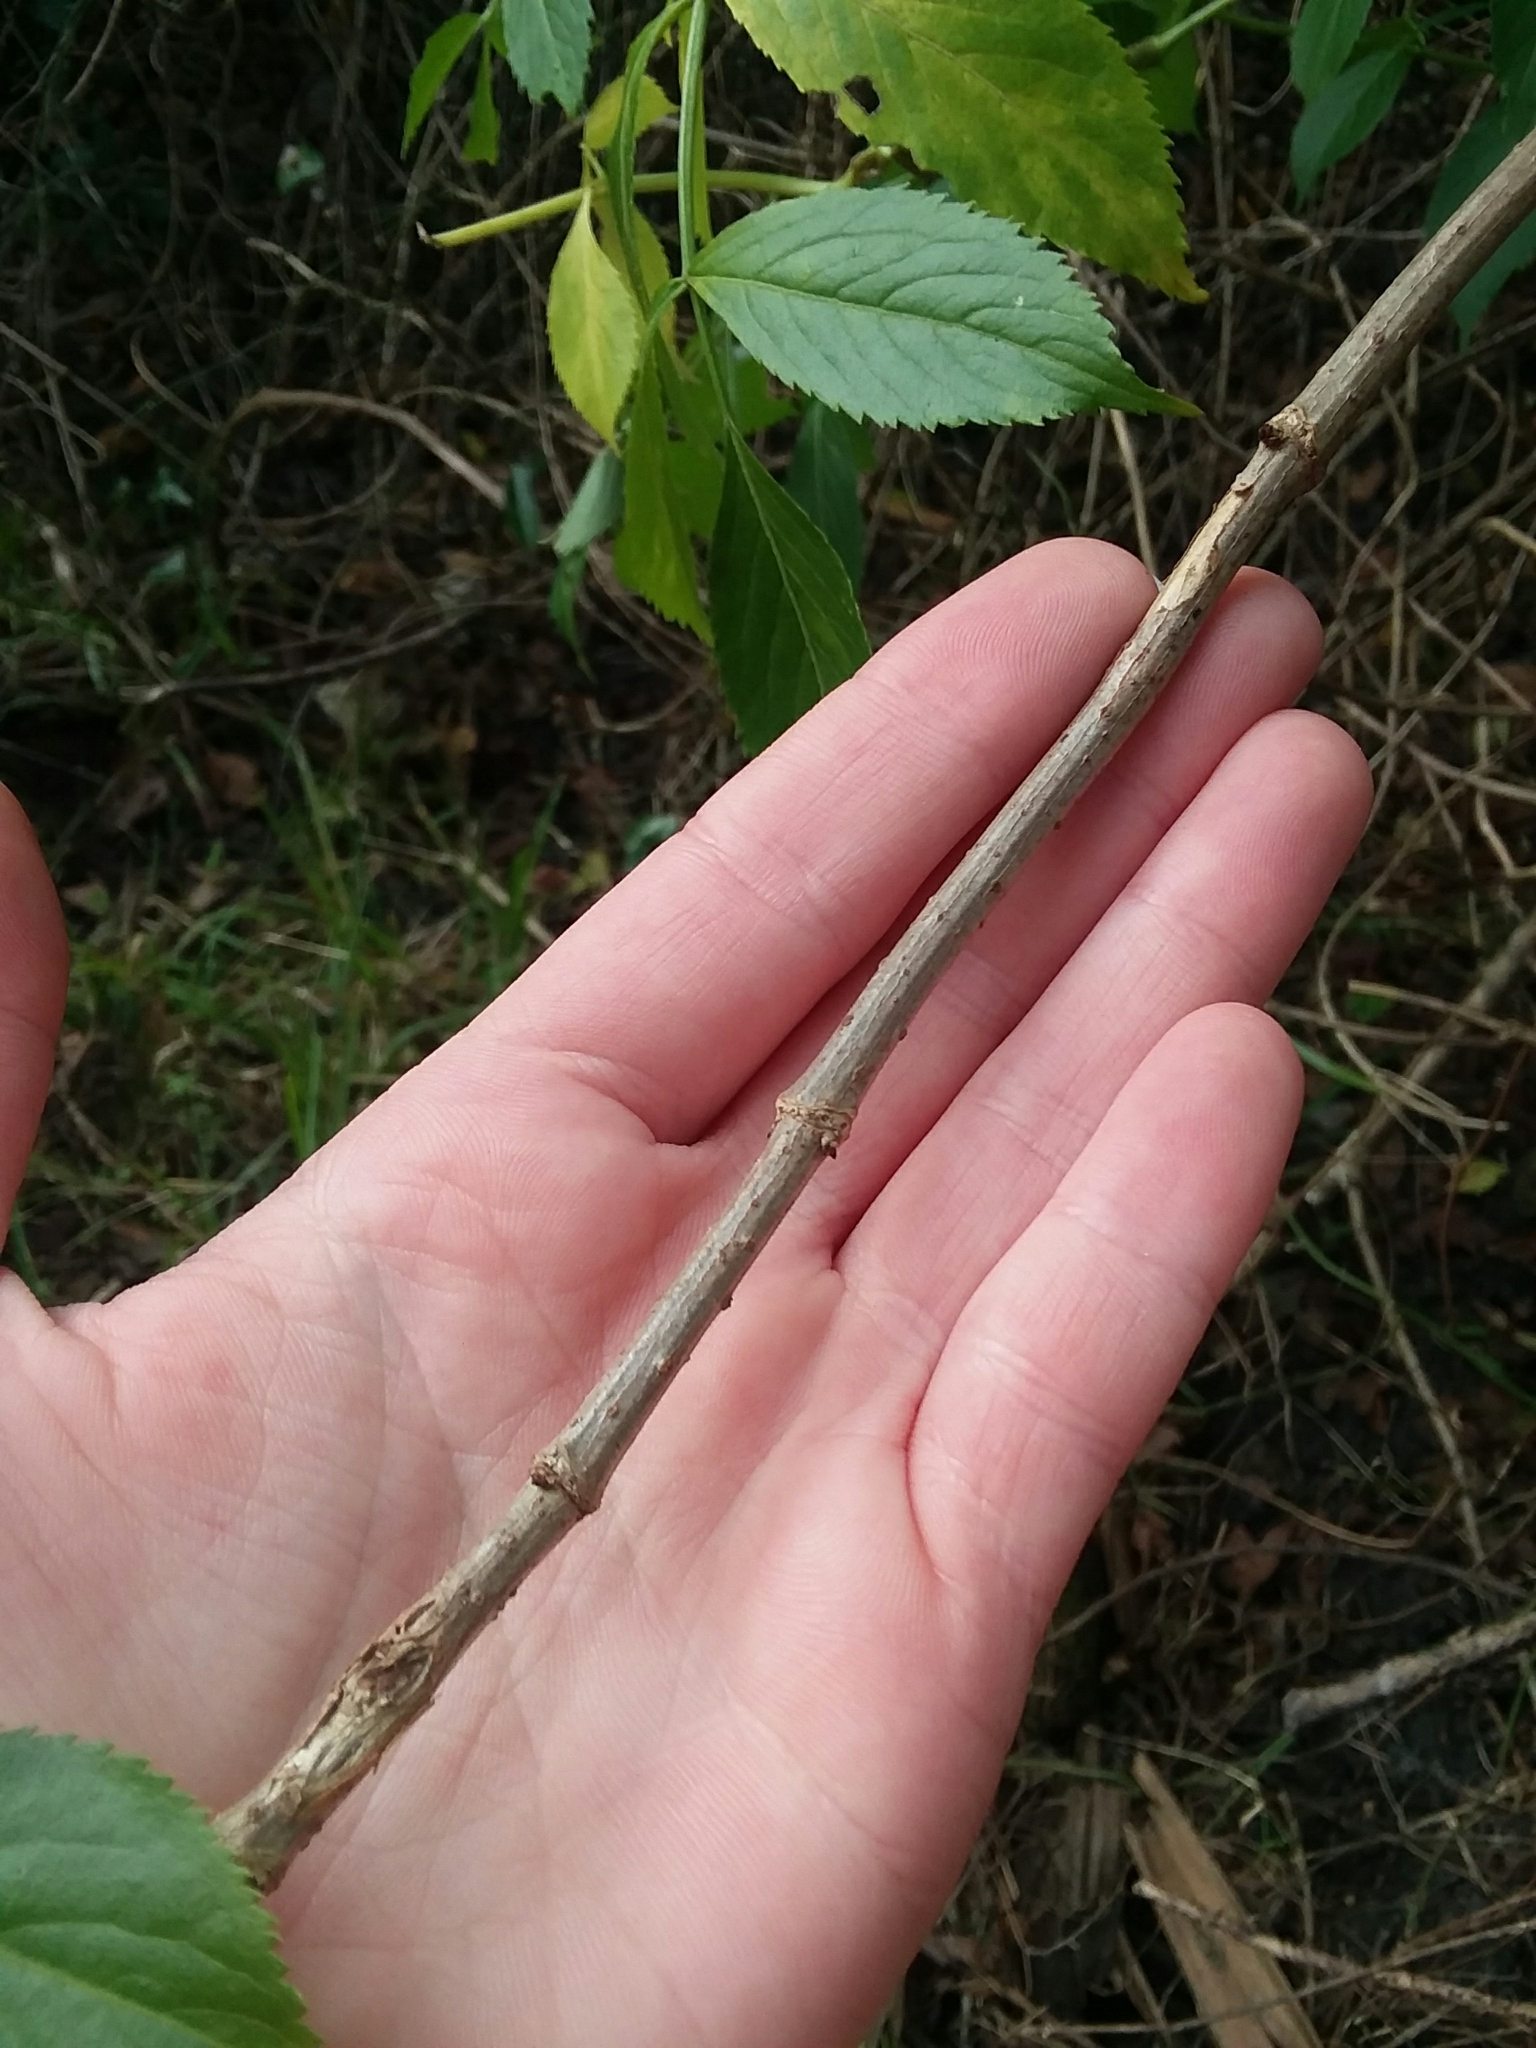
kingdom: Plantae
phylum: Tracheophyta
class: Magnoliopsida
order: Dipsacales
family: Viburnaceae
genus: Sambucus
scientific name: Sambucus canadensis
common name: American elder
